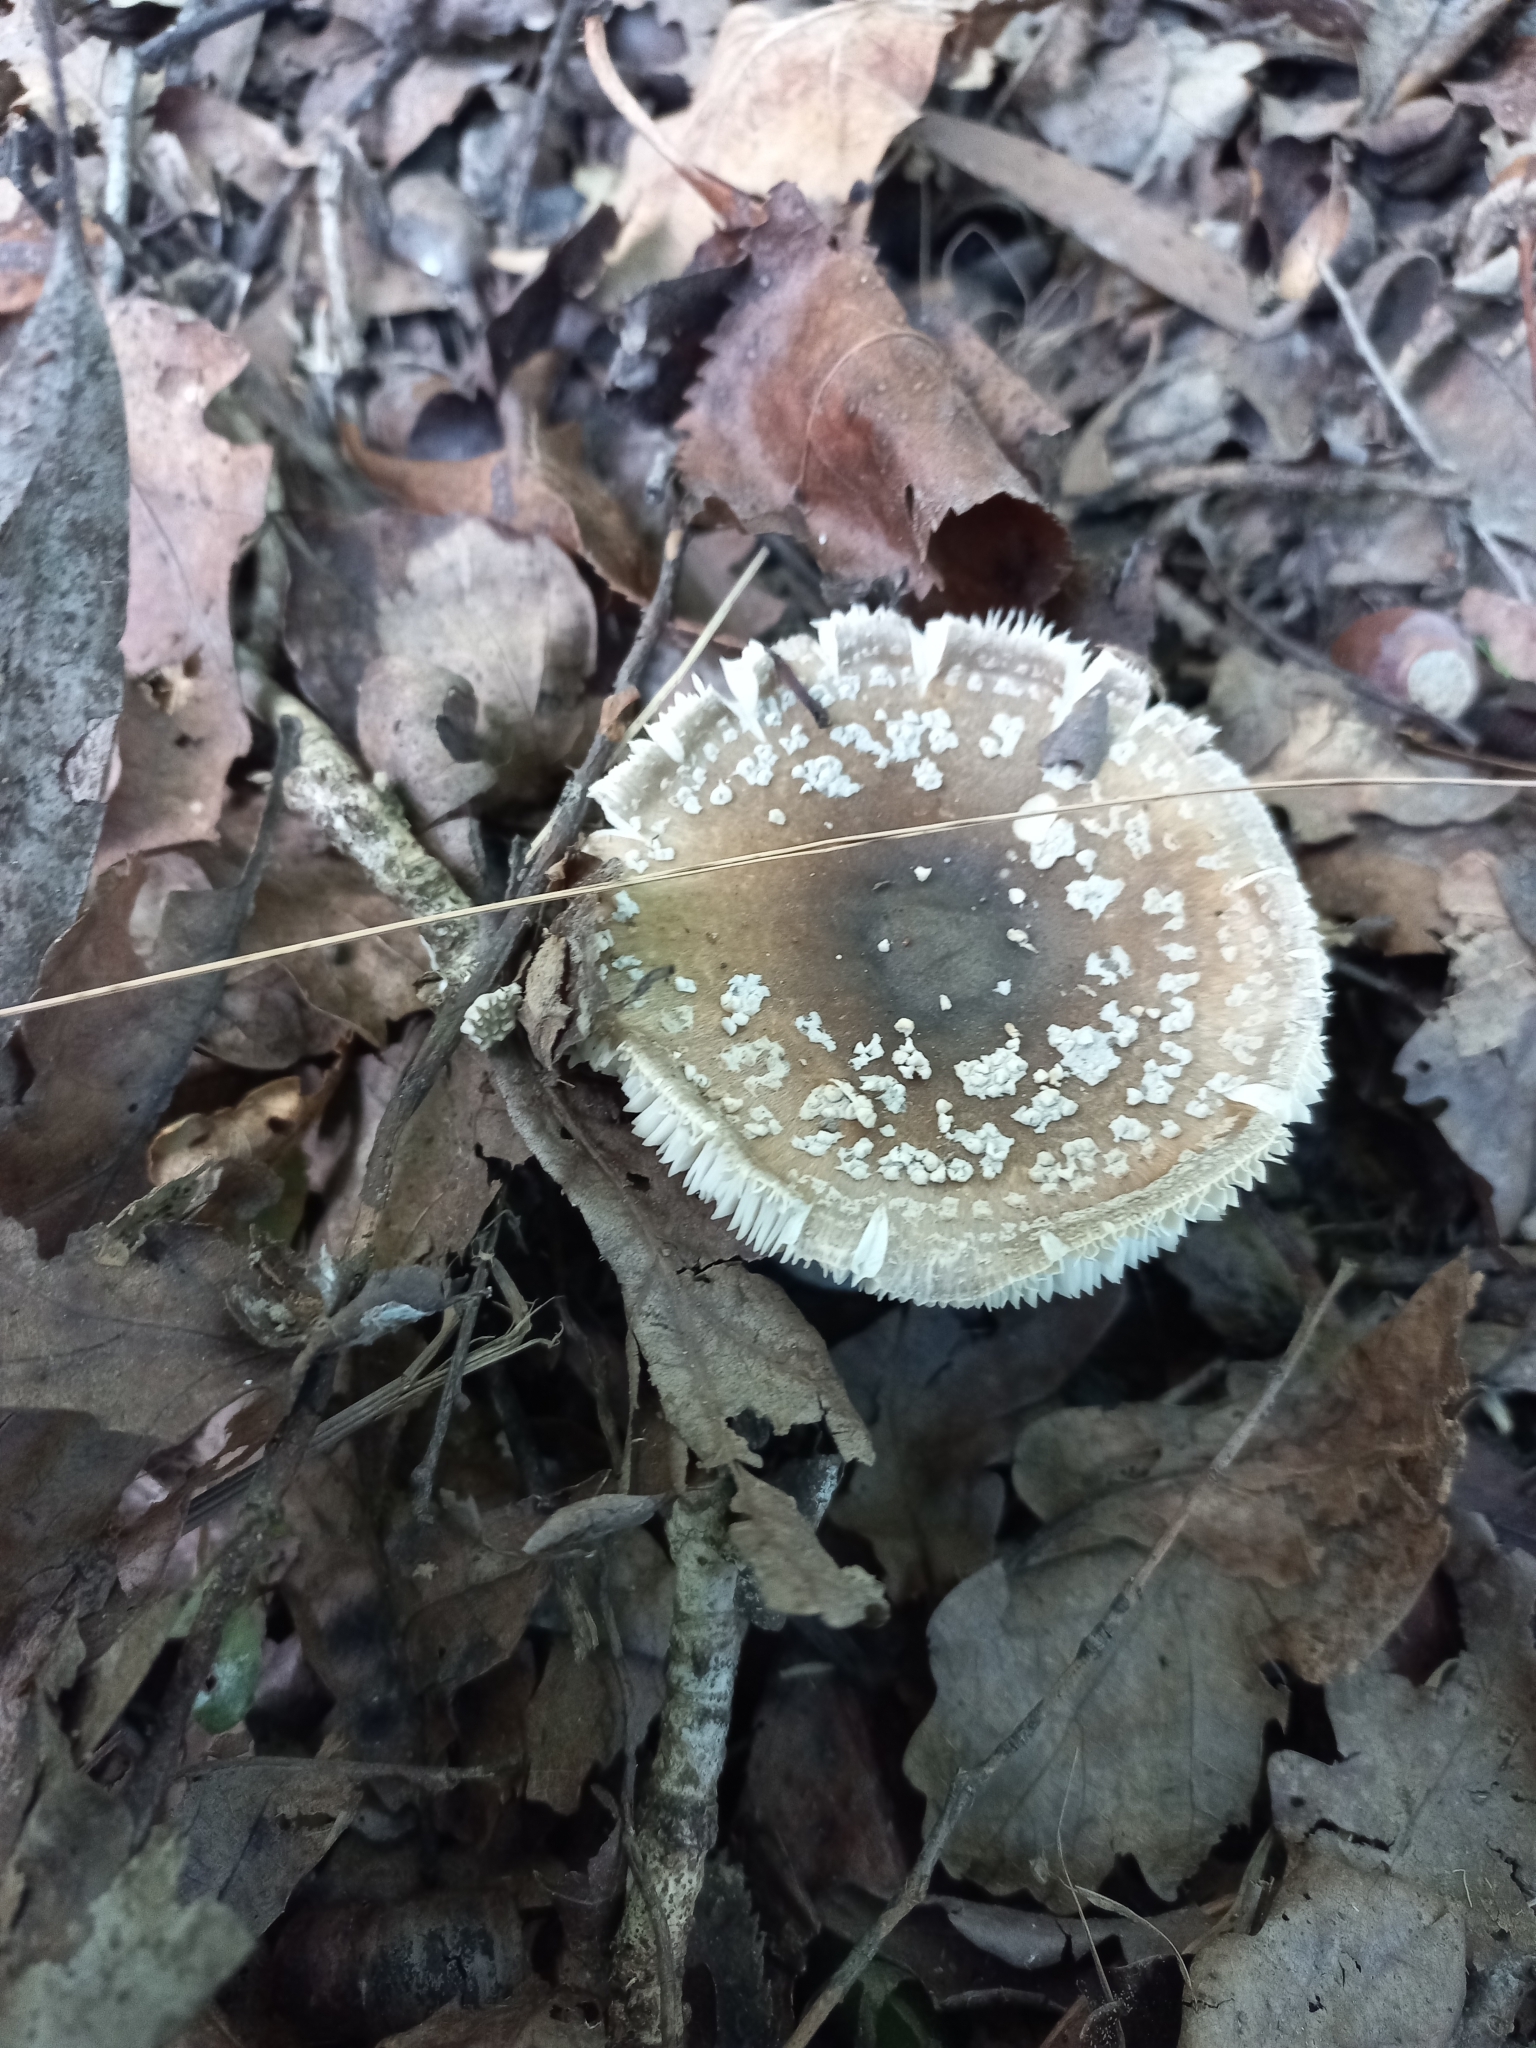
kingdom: Fungi
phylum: Basidiomycota
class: Agaricomycetes
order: Agaricales
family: Amanitaceae
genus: Amanita
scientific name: Amanita excelsa
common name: European false blusher
